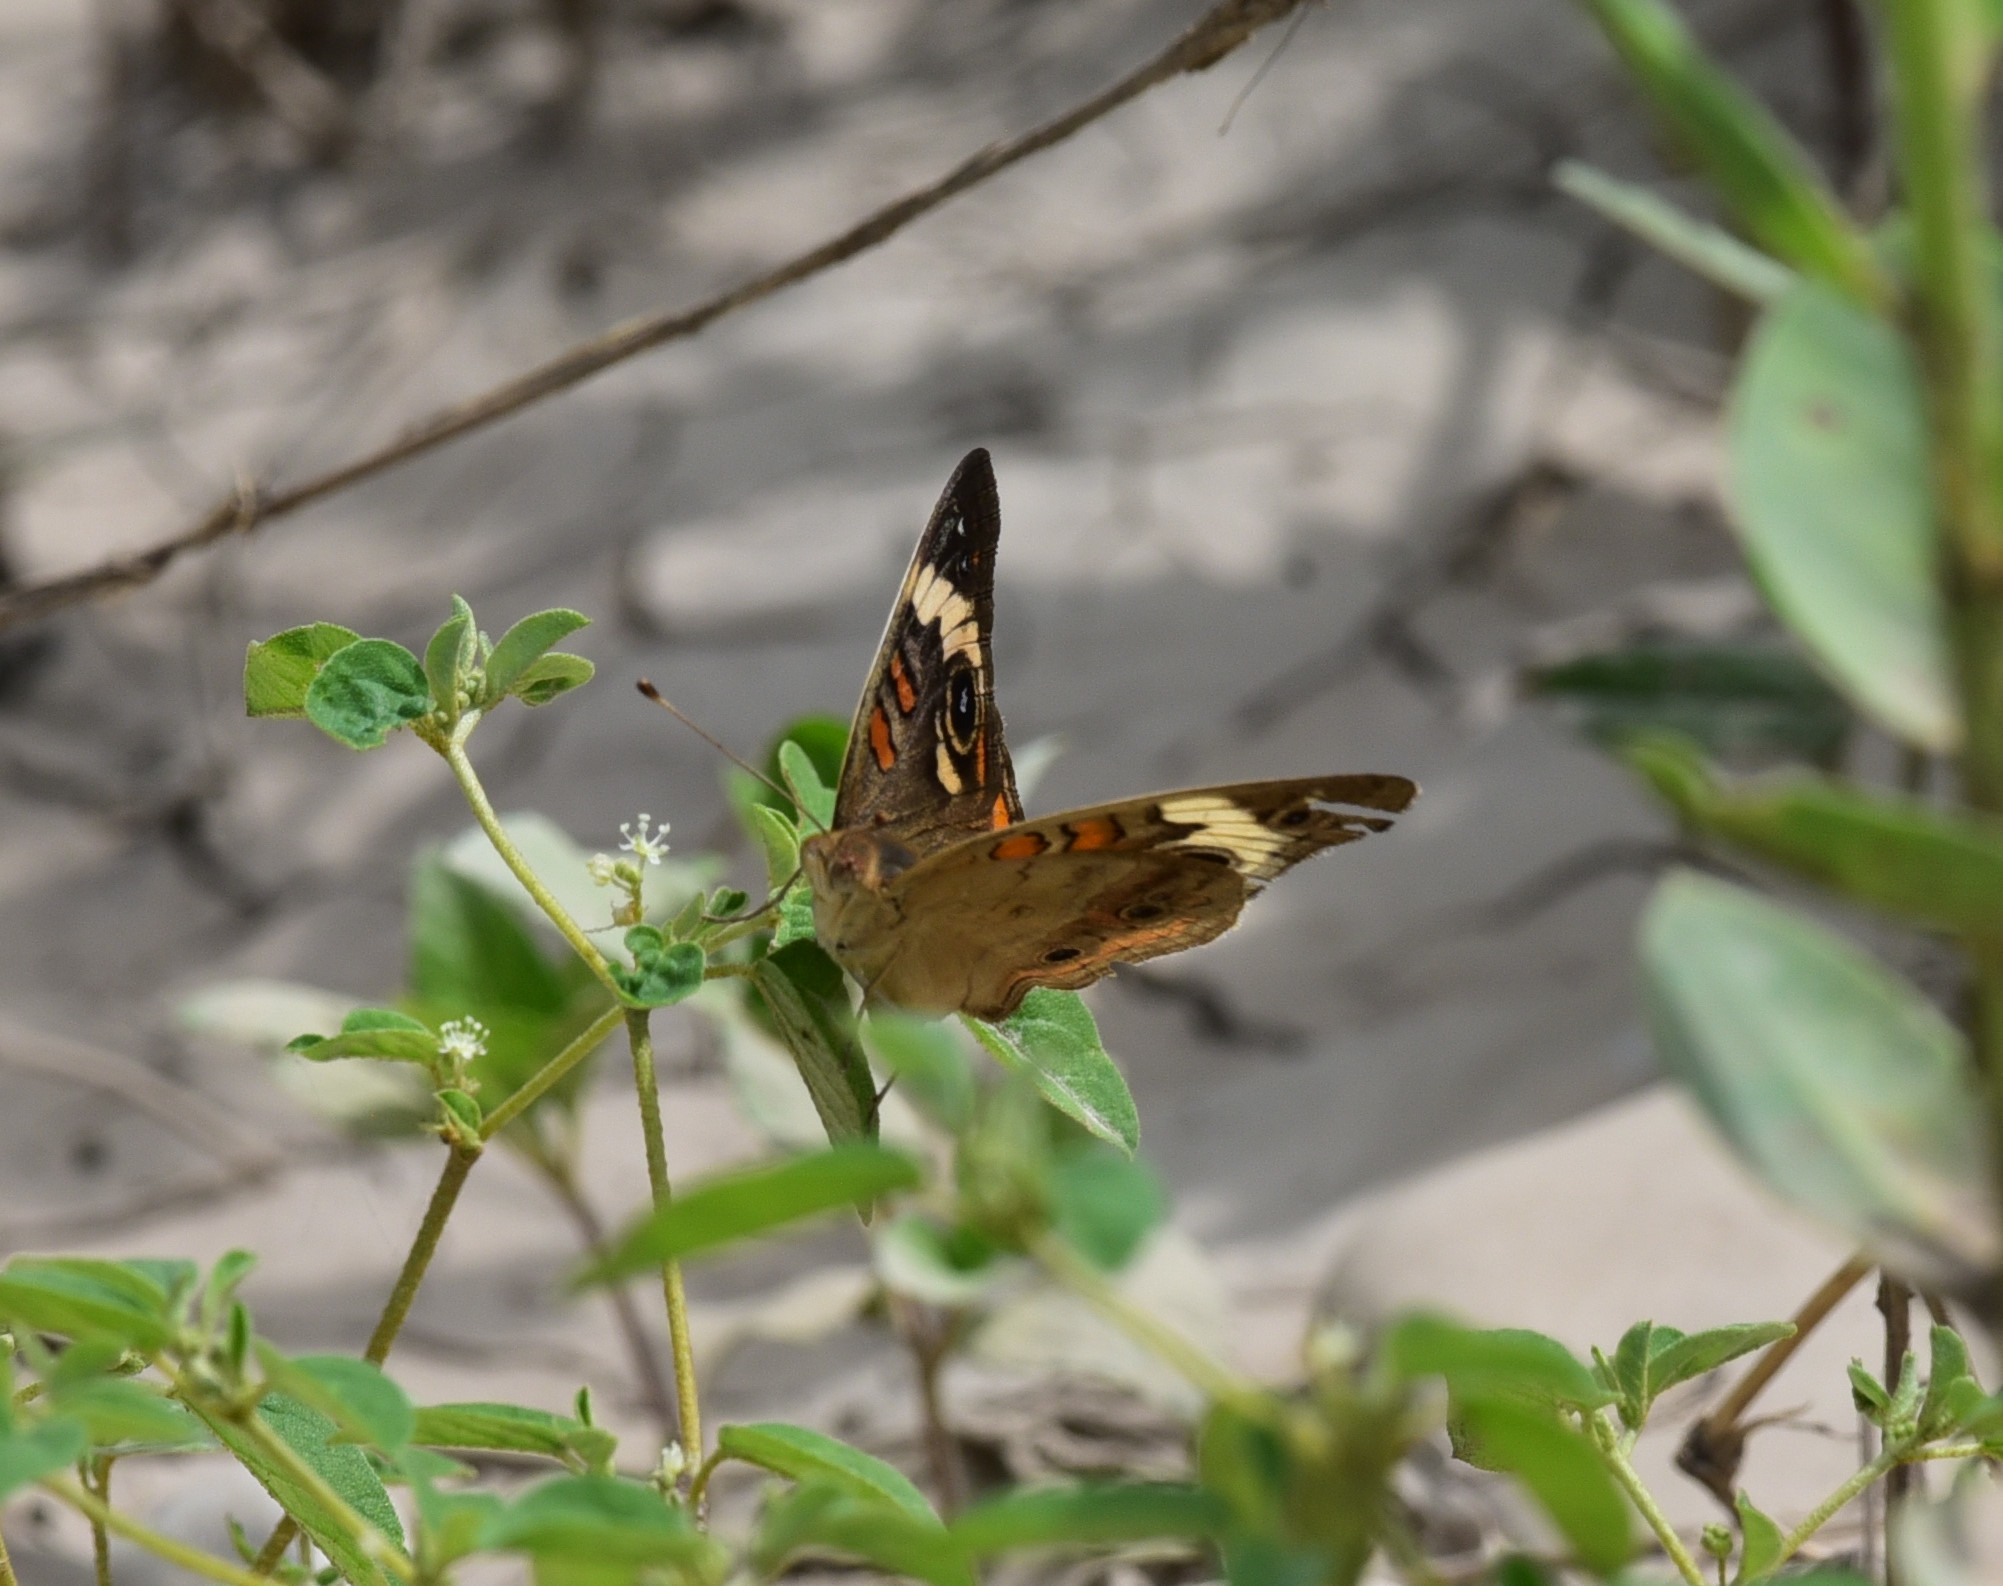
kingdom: Animalia
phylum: Arthropoda
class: Insecta
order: Lepidoptera
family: Nymphalidae
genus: Junonia
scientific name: Junonia coenia
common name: Common buckeye
